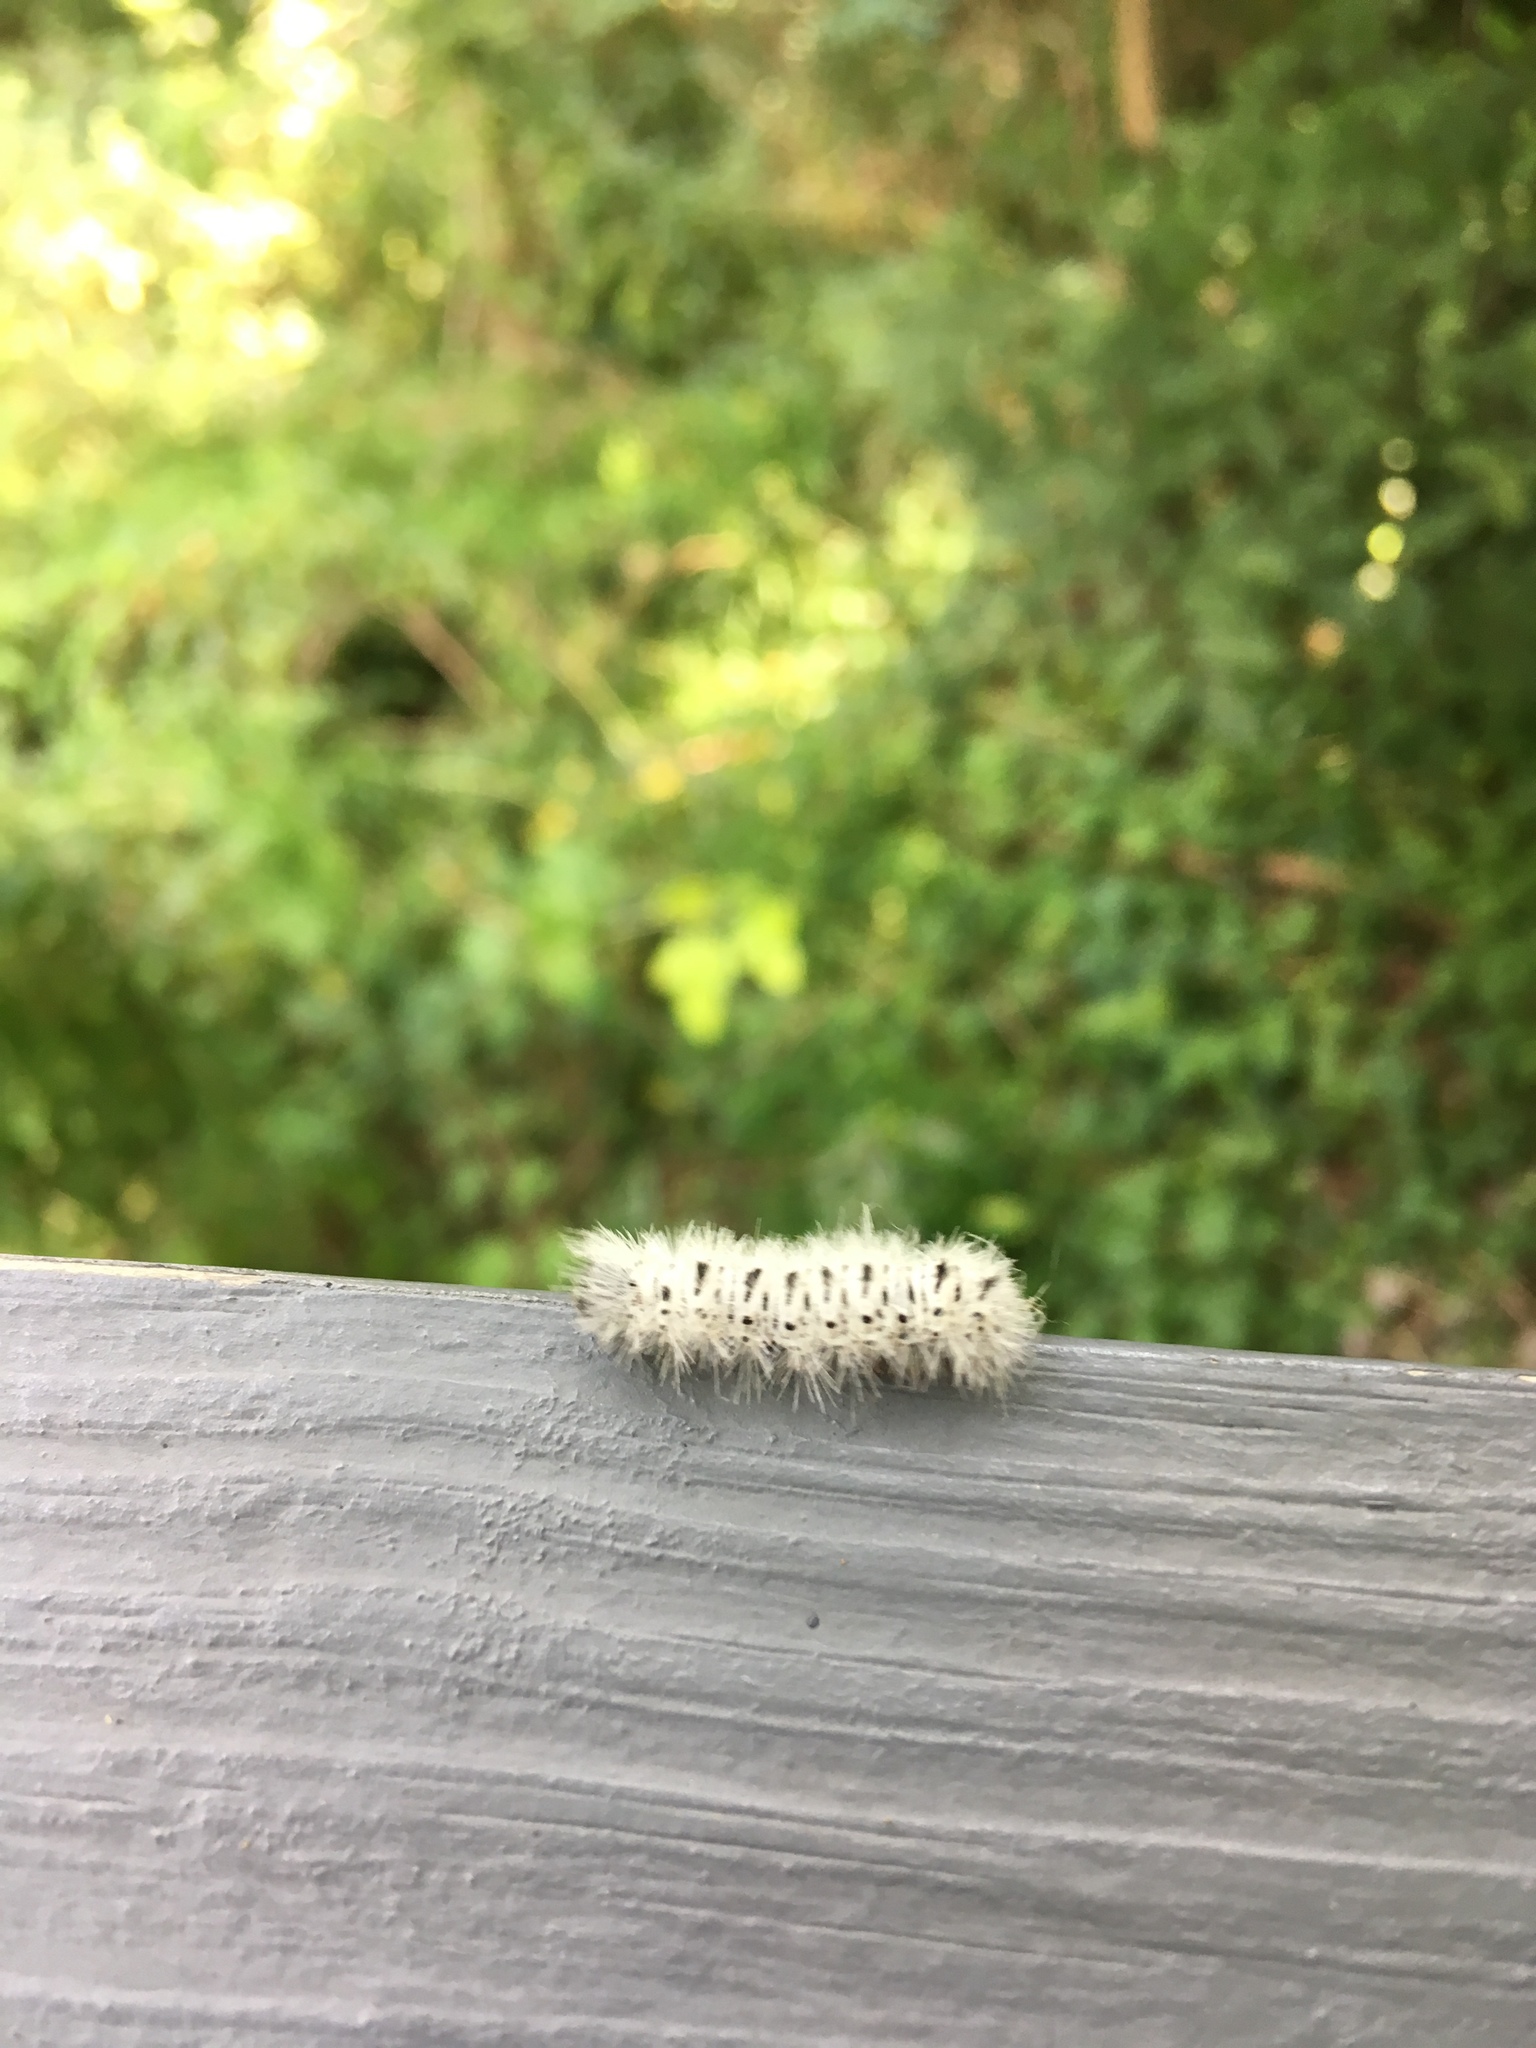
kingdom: Animalia
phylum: Arthropoda
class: Insecta
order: Lepidoptera
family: Erebidae
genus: Lophocampa
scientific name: Lophocampa caryae
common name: Hickory tussock moth
